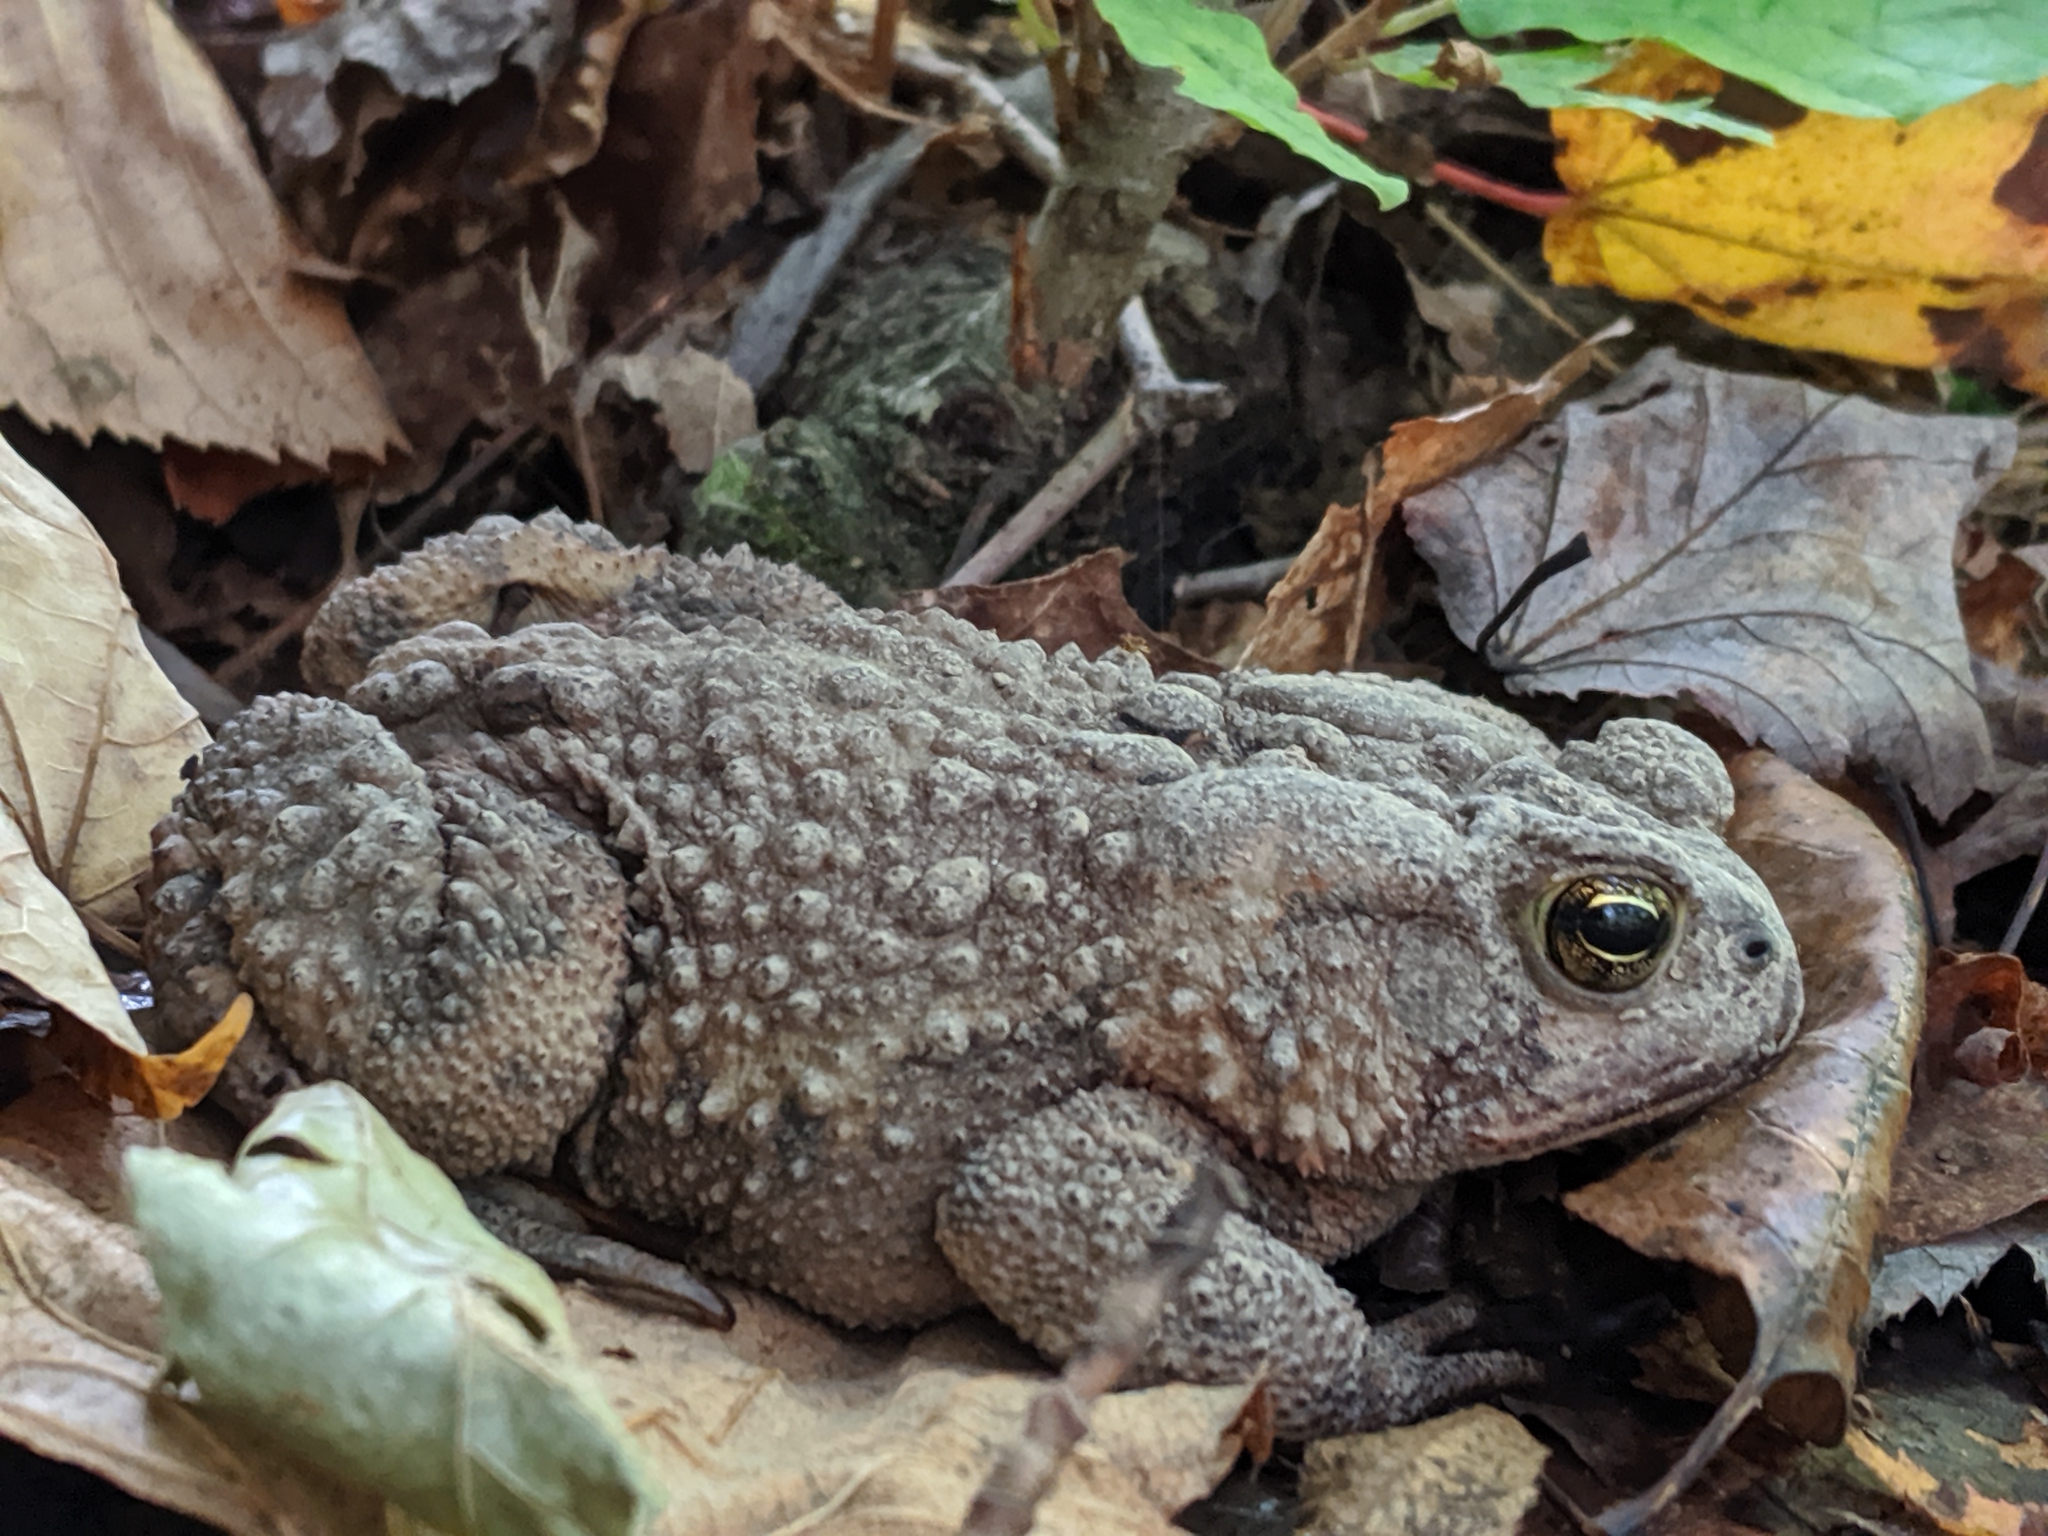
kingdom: Animalia
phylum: Chordata
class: Amphibia
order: Anura
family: Bufonidae
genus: Anaxyrus
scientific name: Anaxyrus americanus
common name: American toad
